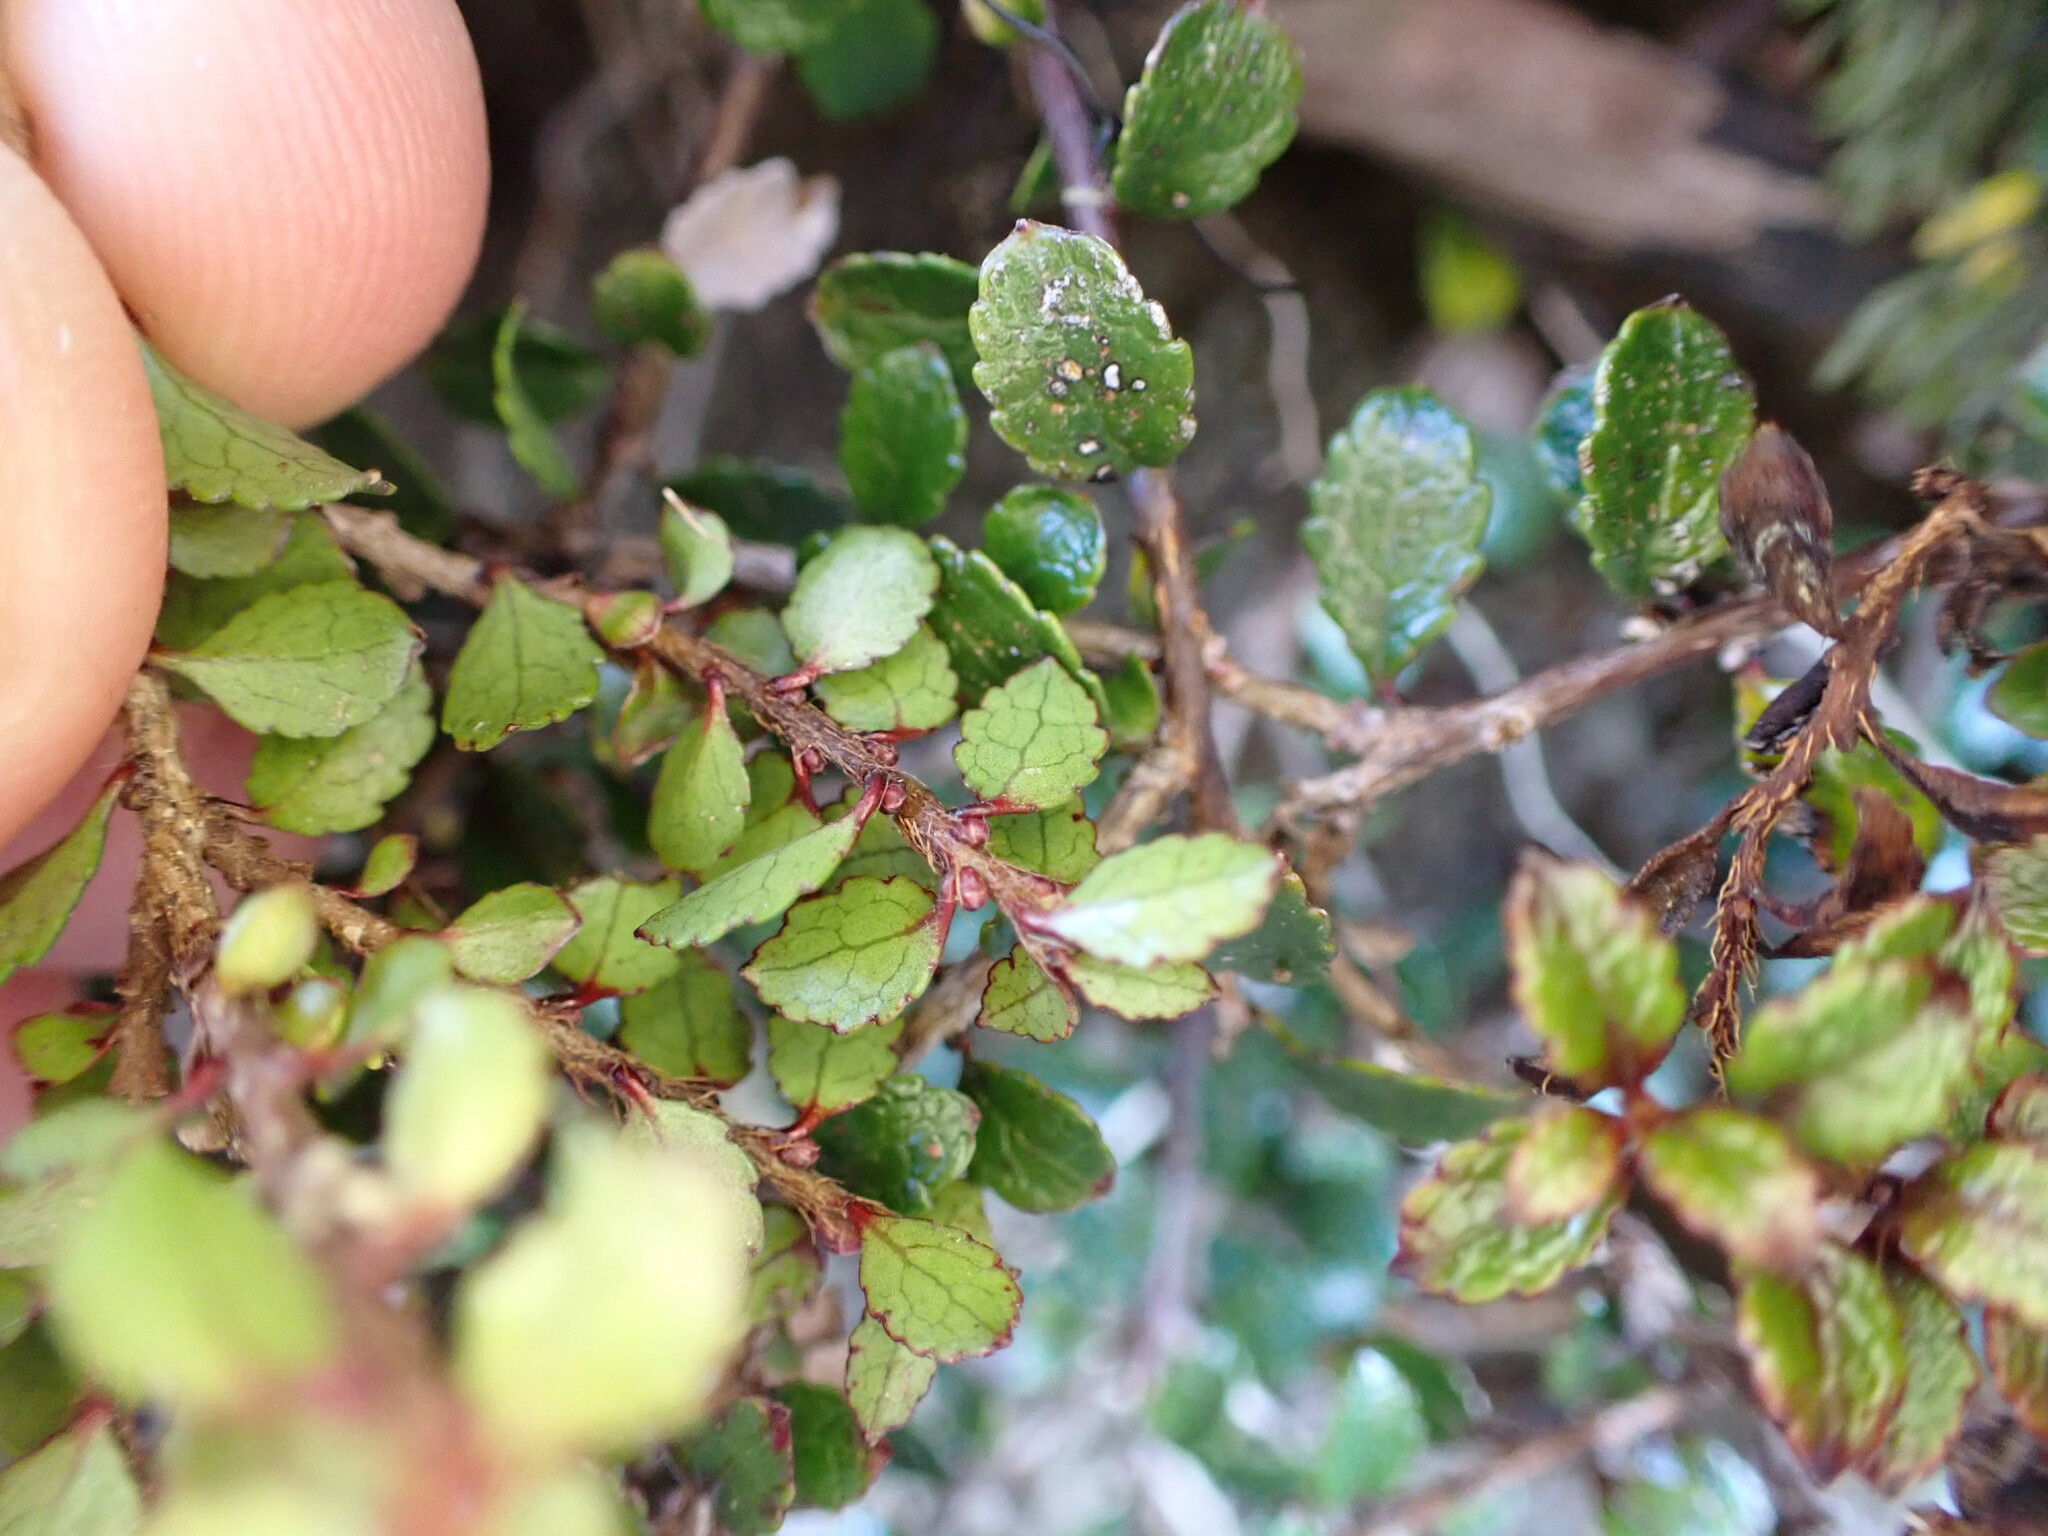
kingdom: Plantae
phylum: Tracheophyta
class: Magnoliopsida
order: Ericales
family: Ericaceae
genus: Gaultheria
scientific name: Gaultheria depressa
